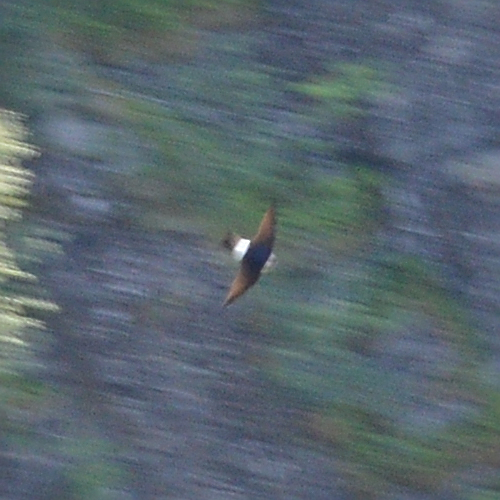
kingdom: Animalia
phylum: Chordata
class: Aves
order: Passeriformes
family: Hirundinidae
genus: Delichon
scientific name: Delichon urbicum
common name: Common house martin
